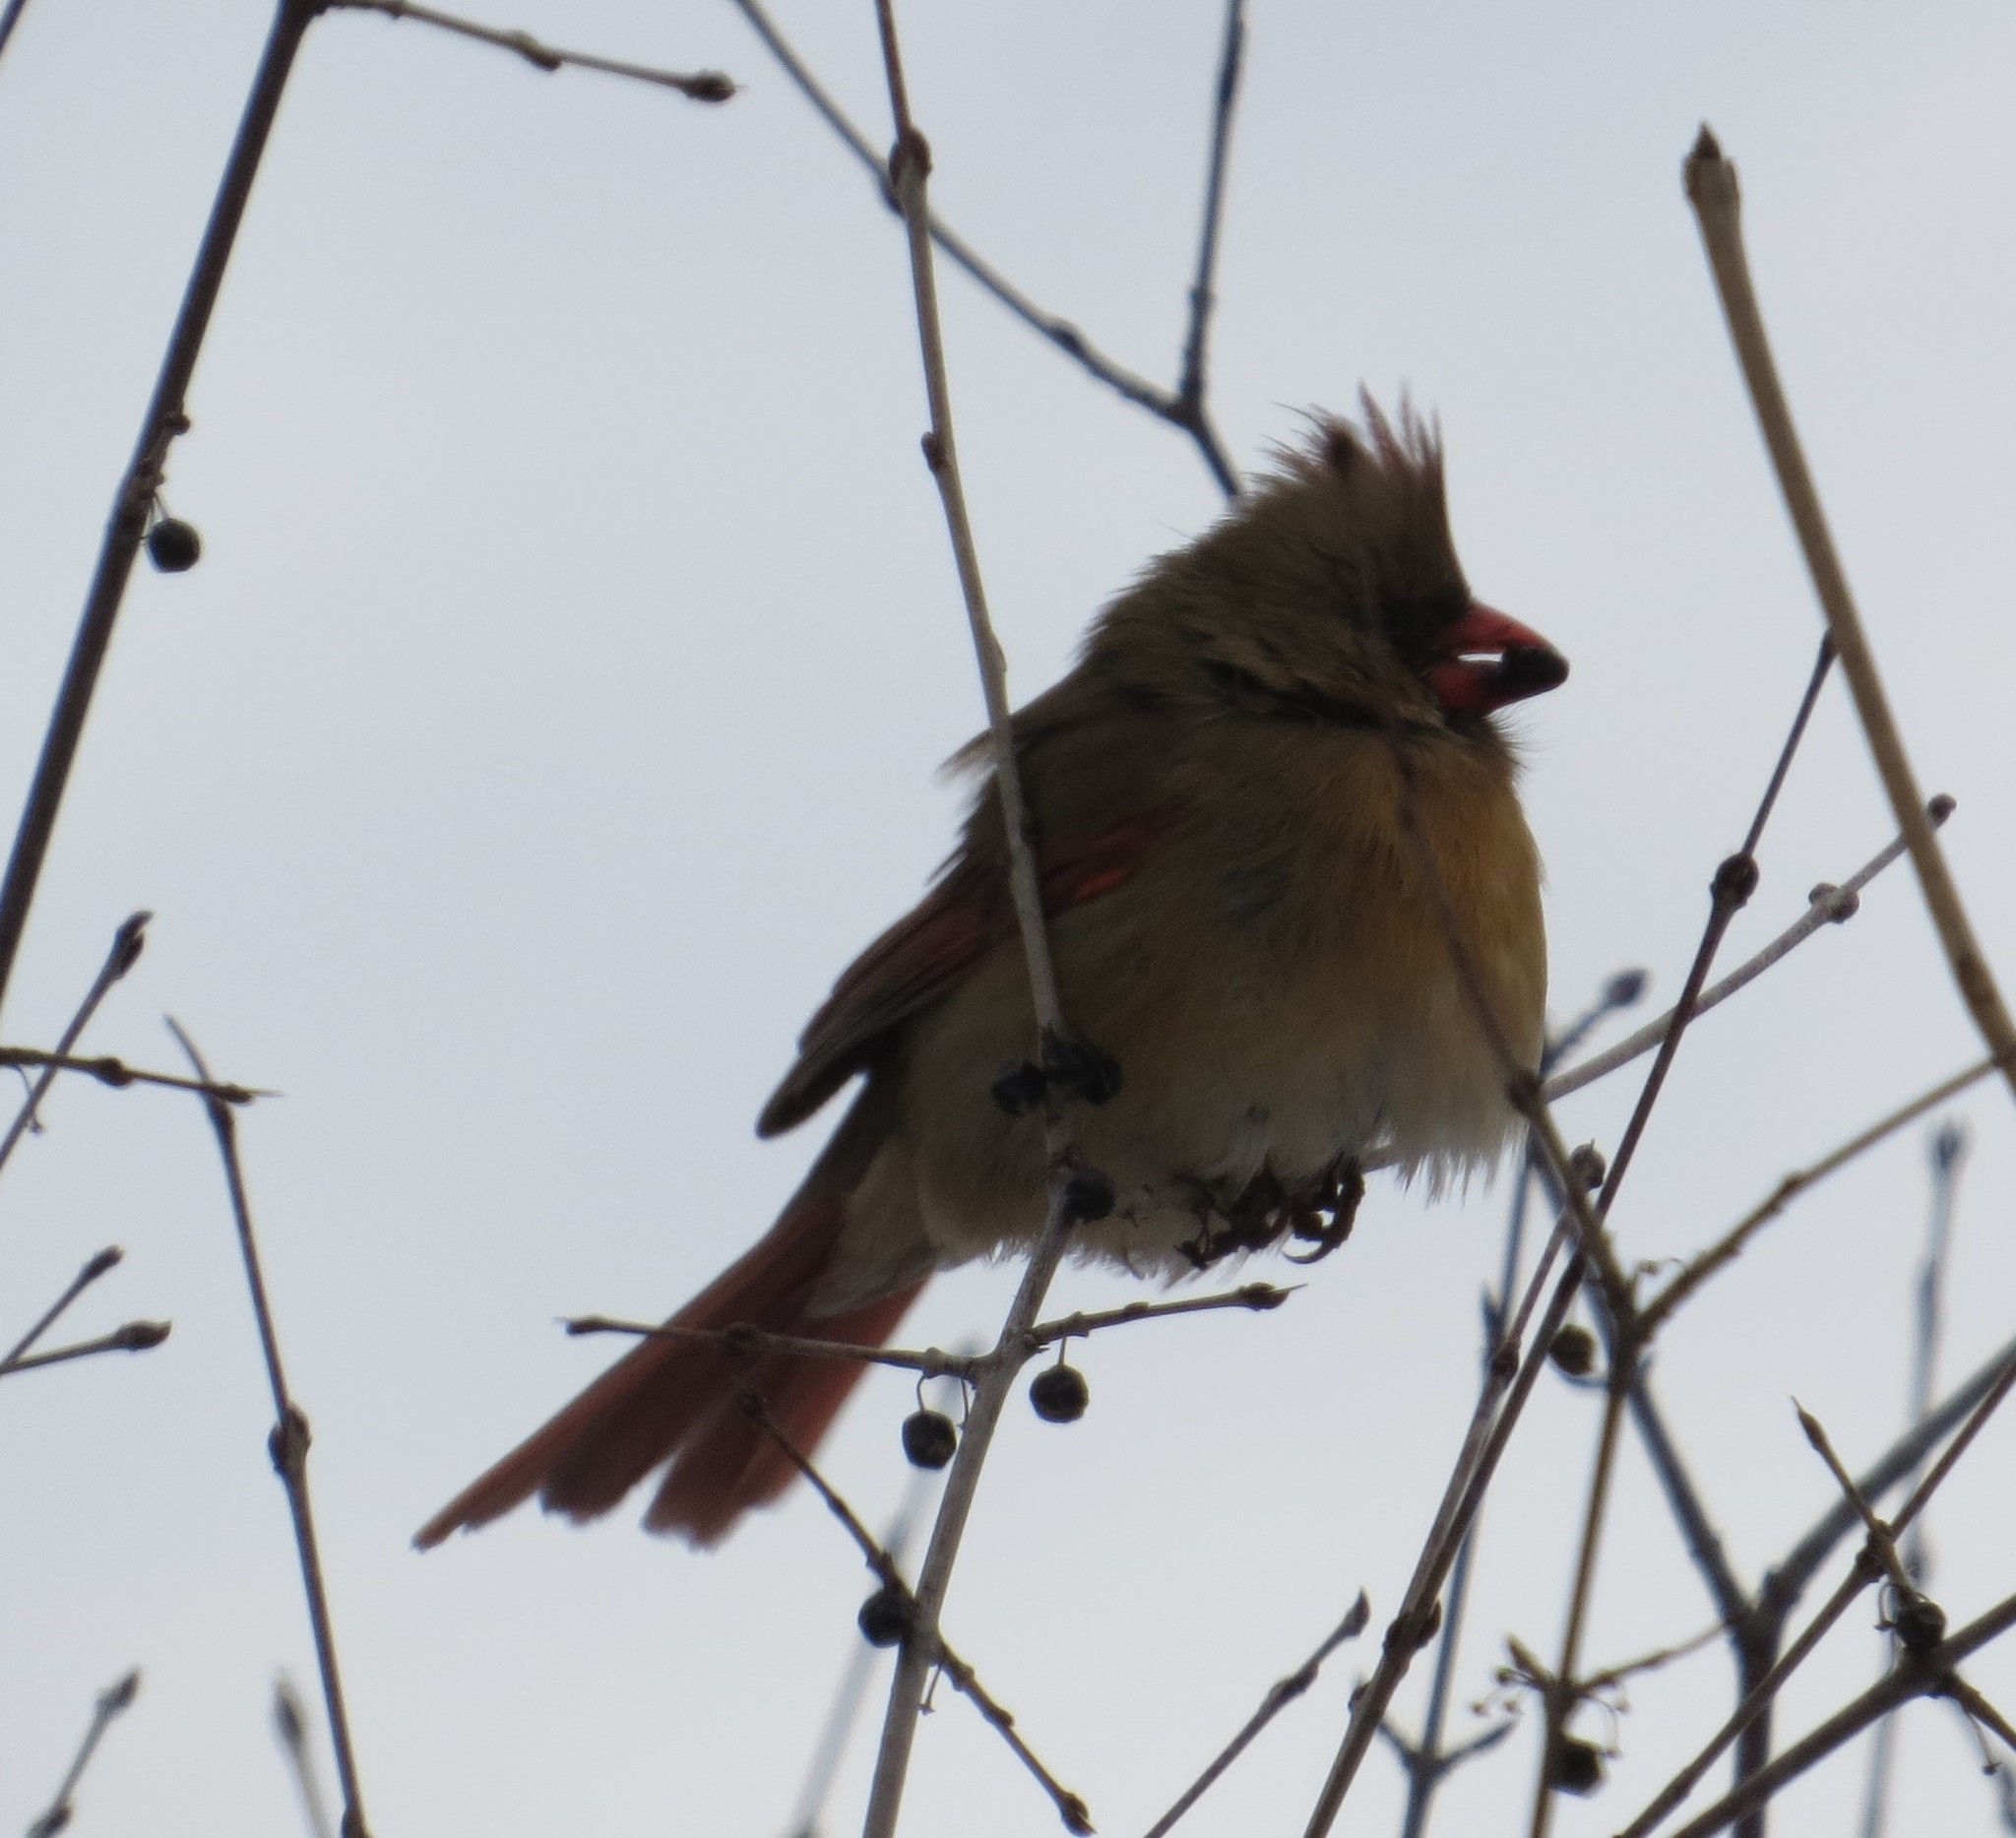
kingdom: Animalia
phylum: Chordata
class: Aves
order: Passeriformes
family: Cardinalidae
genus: Cardinalis
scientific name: Cardinalis cardinalis
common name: Northern cardinal
